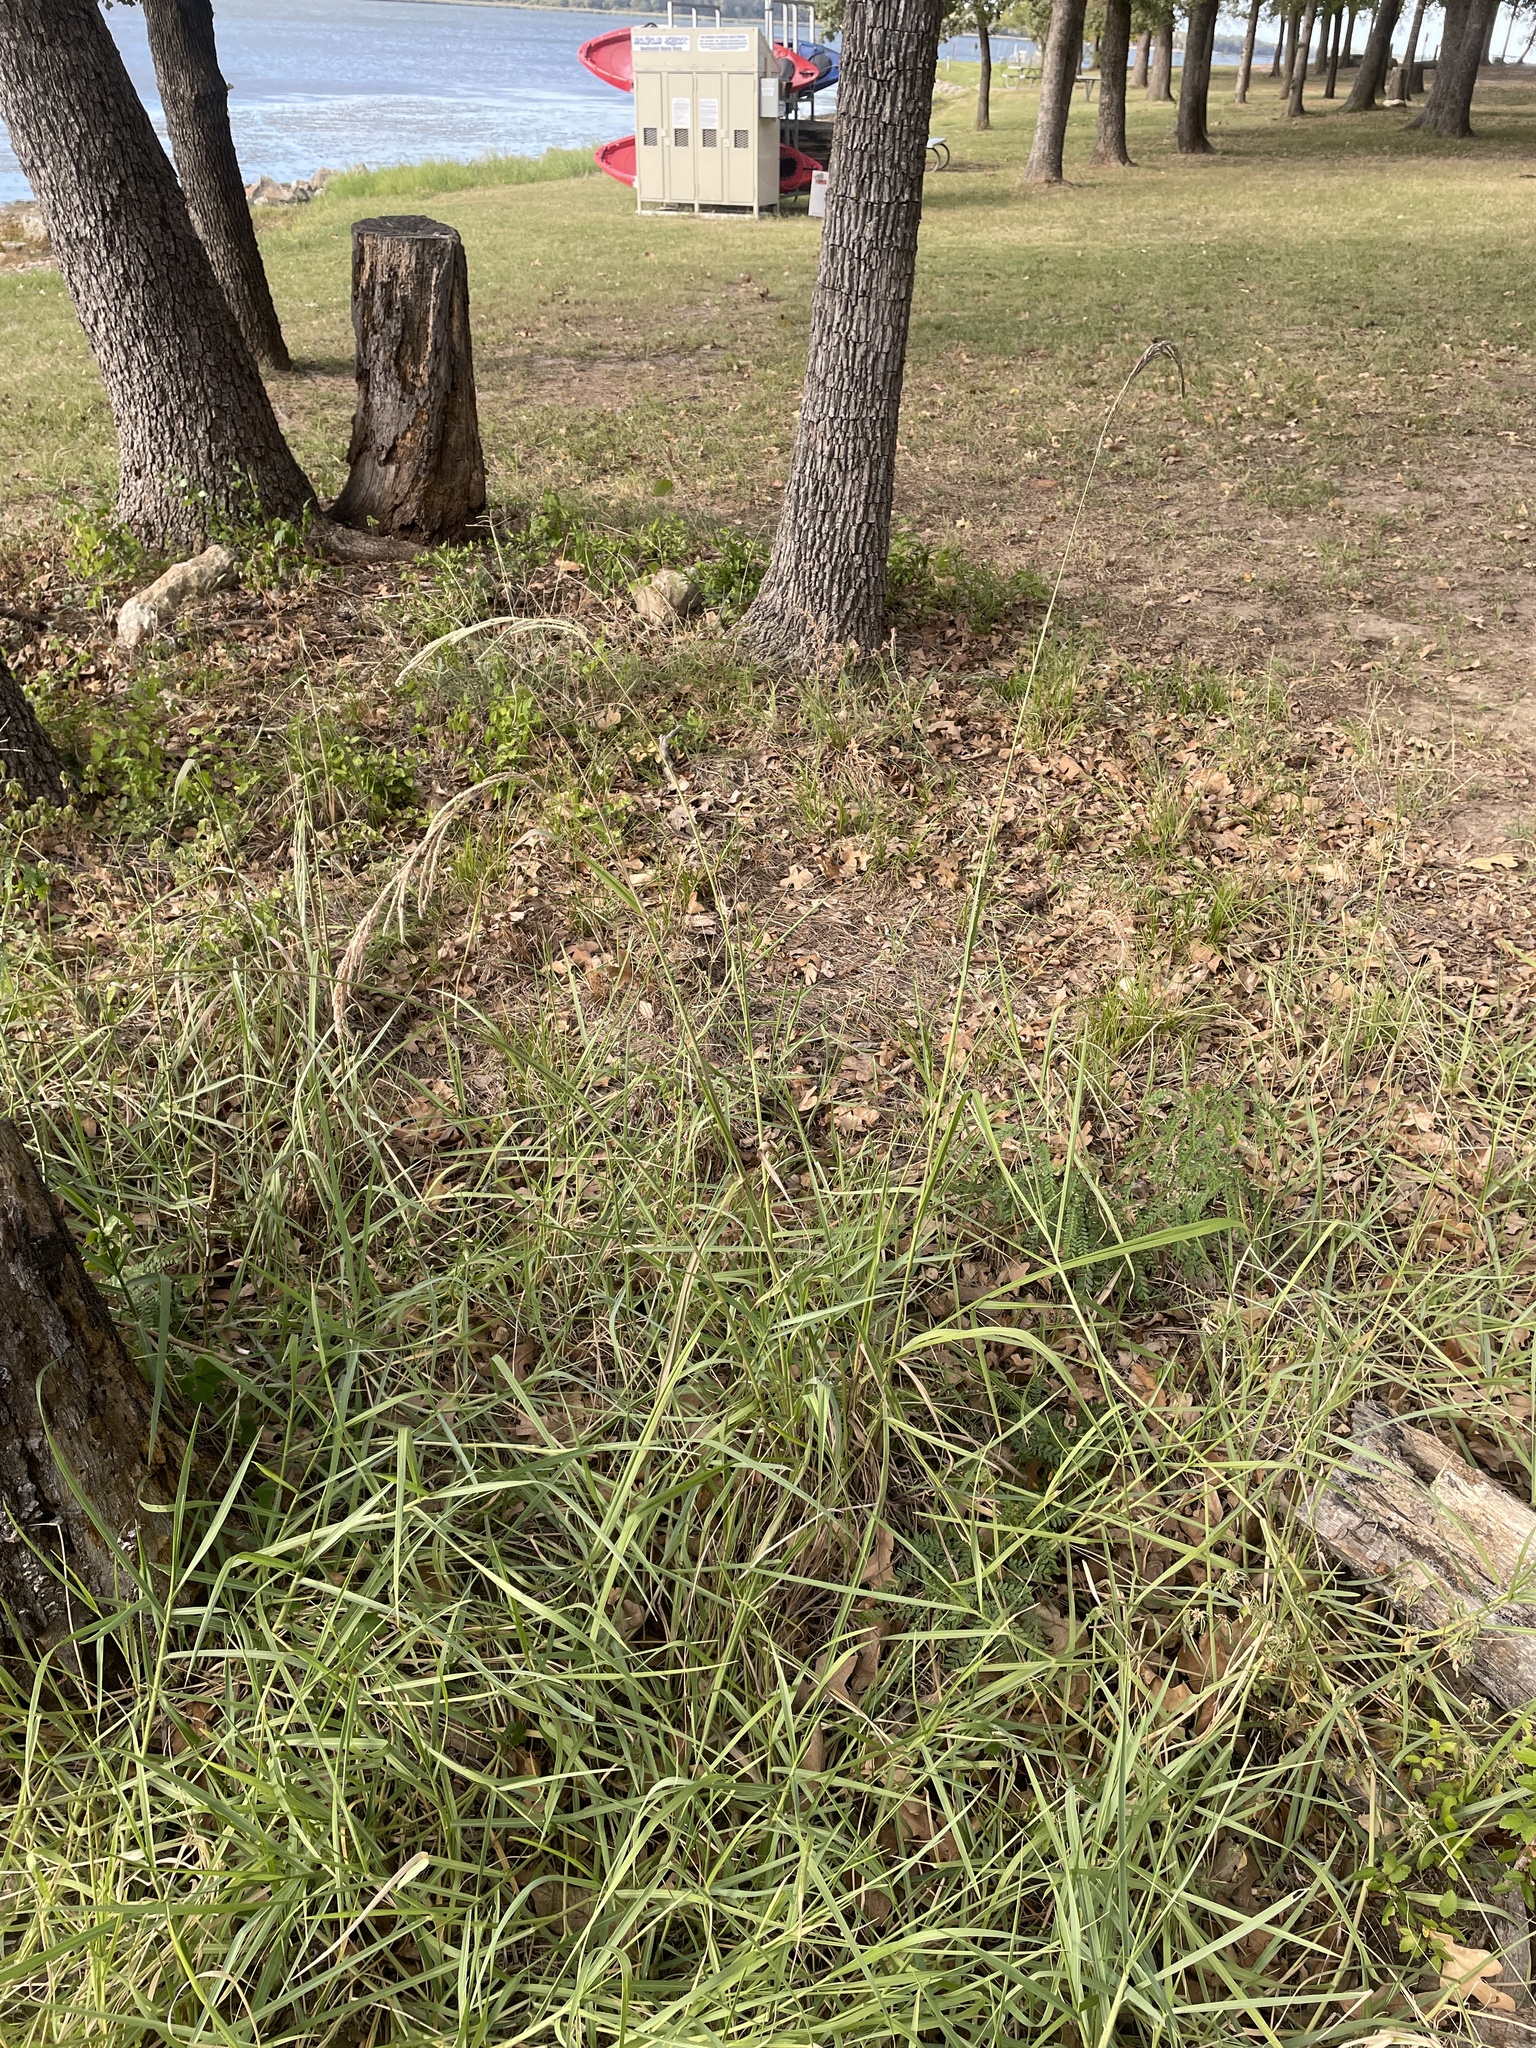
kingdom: Plantae
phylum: Tracheophyta
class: Liliopsida
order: Poales
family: Poaceae
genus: Paspalum
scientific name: Paspalum urvillei
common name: Vasey's grass
